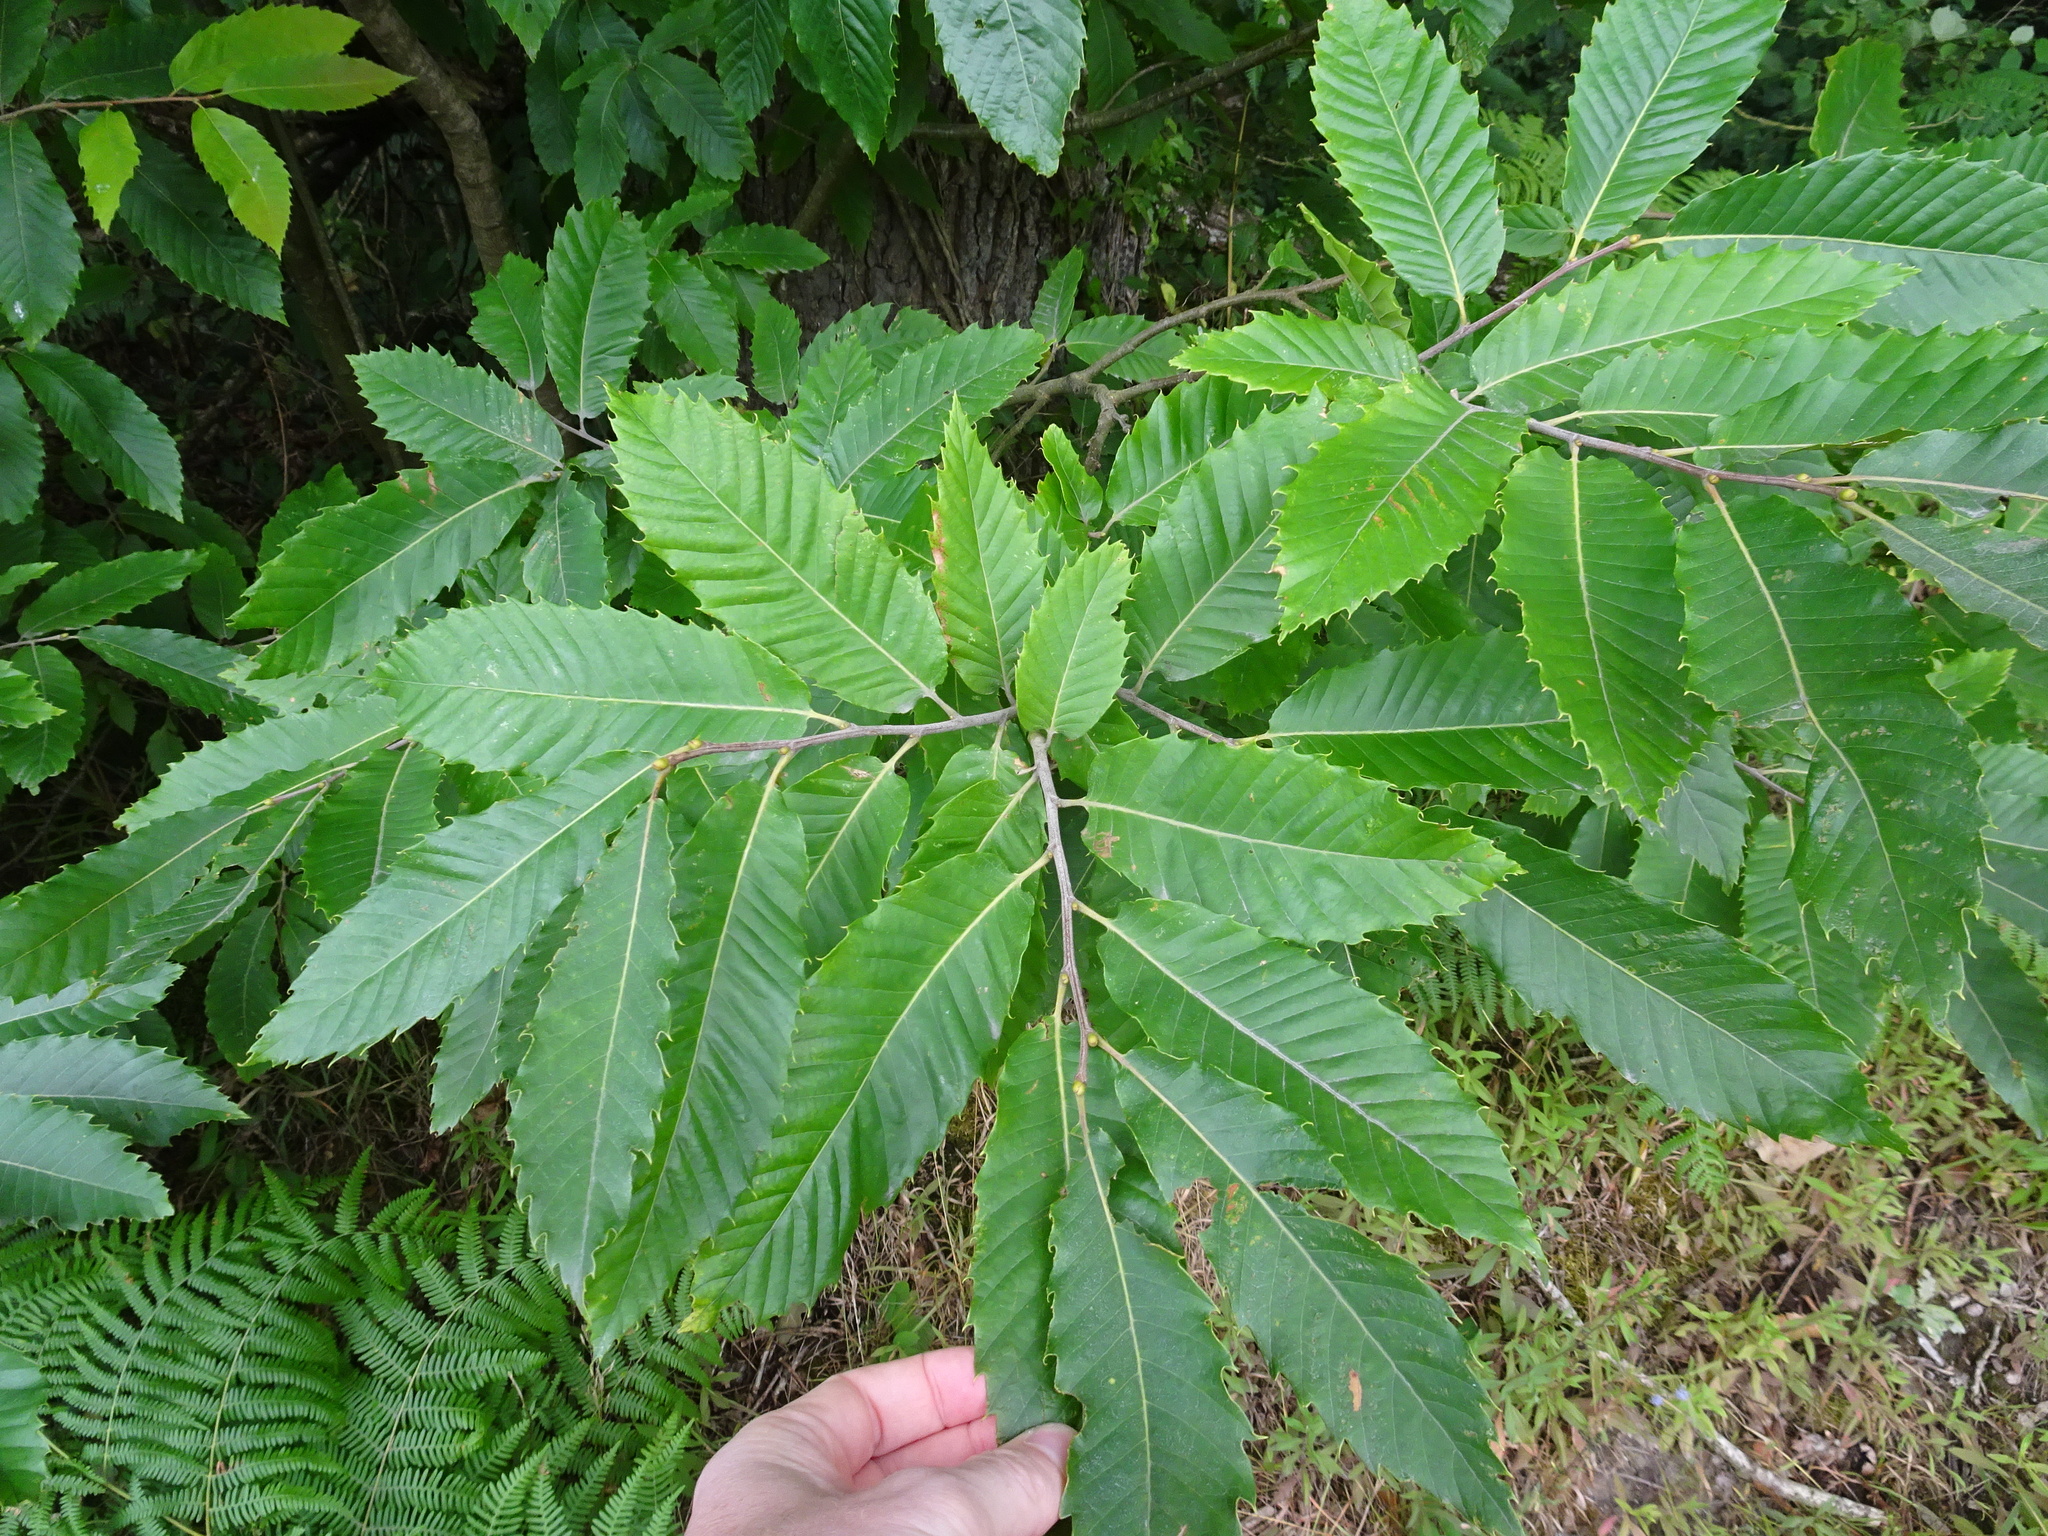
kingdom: Plantae
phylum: Tracheophyta
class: Magnoliopsida
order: Fagales
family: Fagaceae
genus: Castanea
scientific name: Castanea sativa
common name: Sweet chestnut
